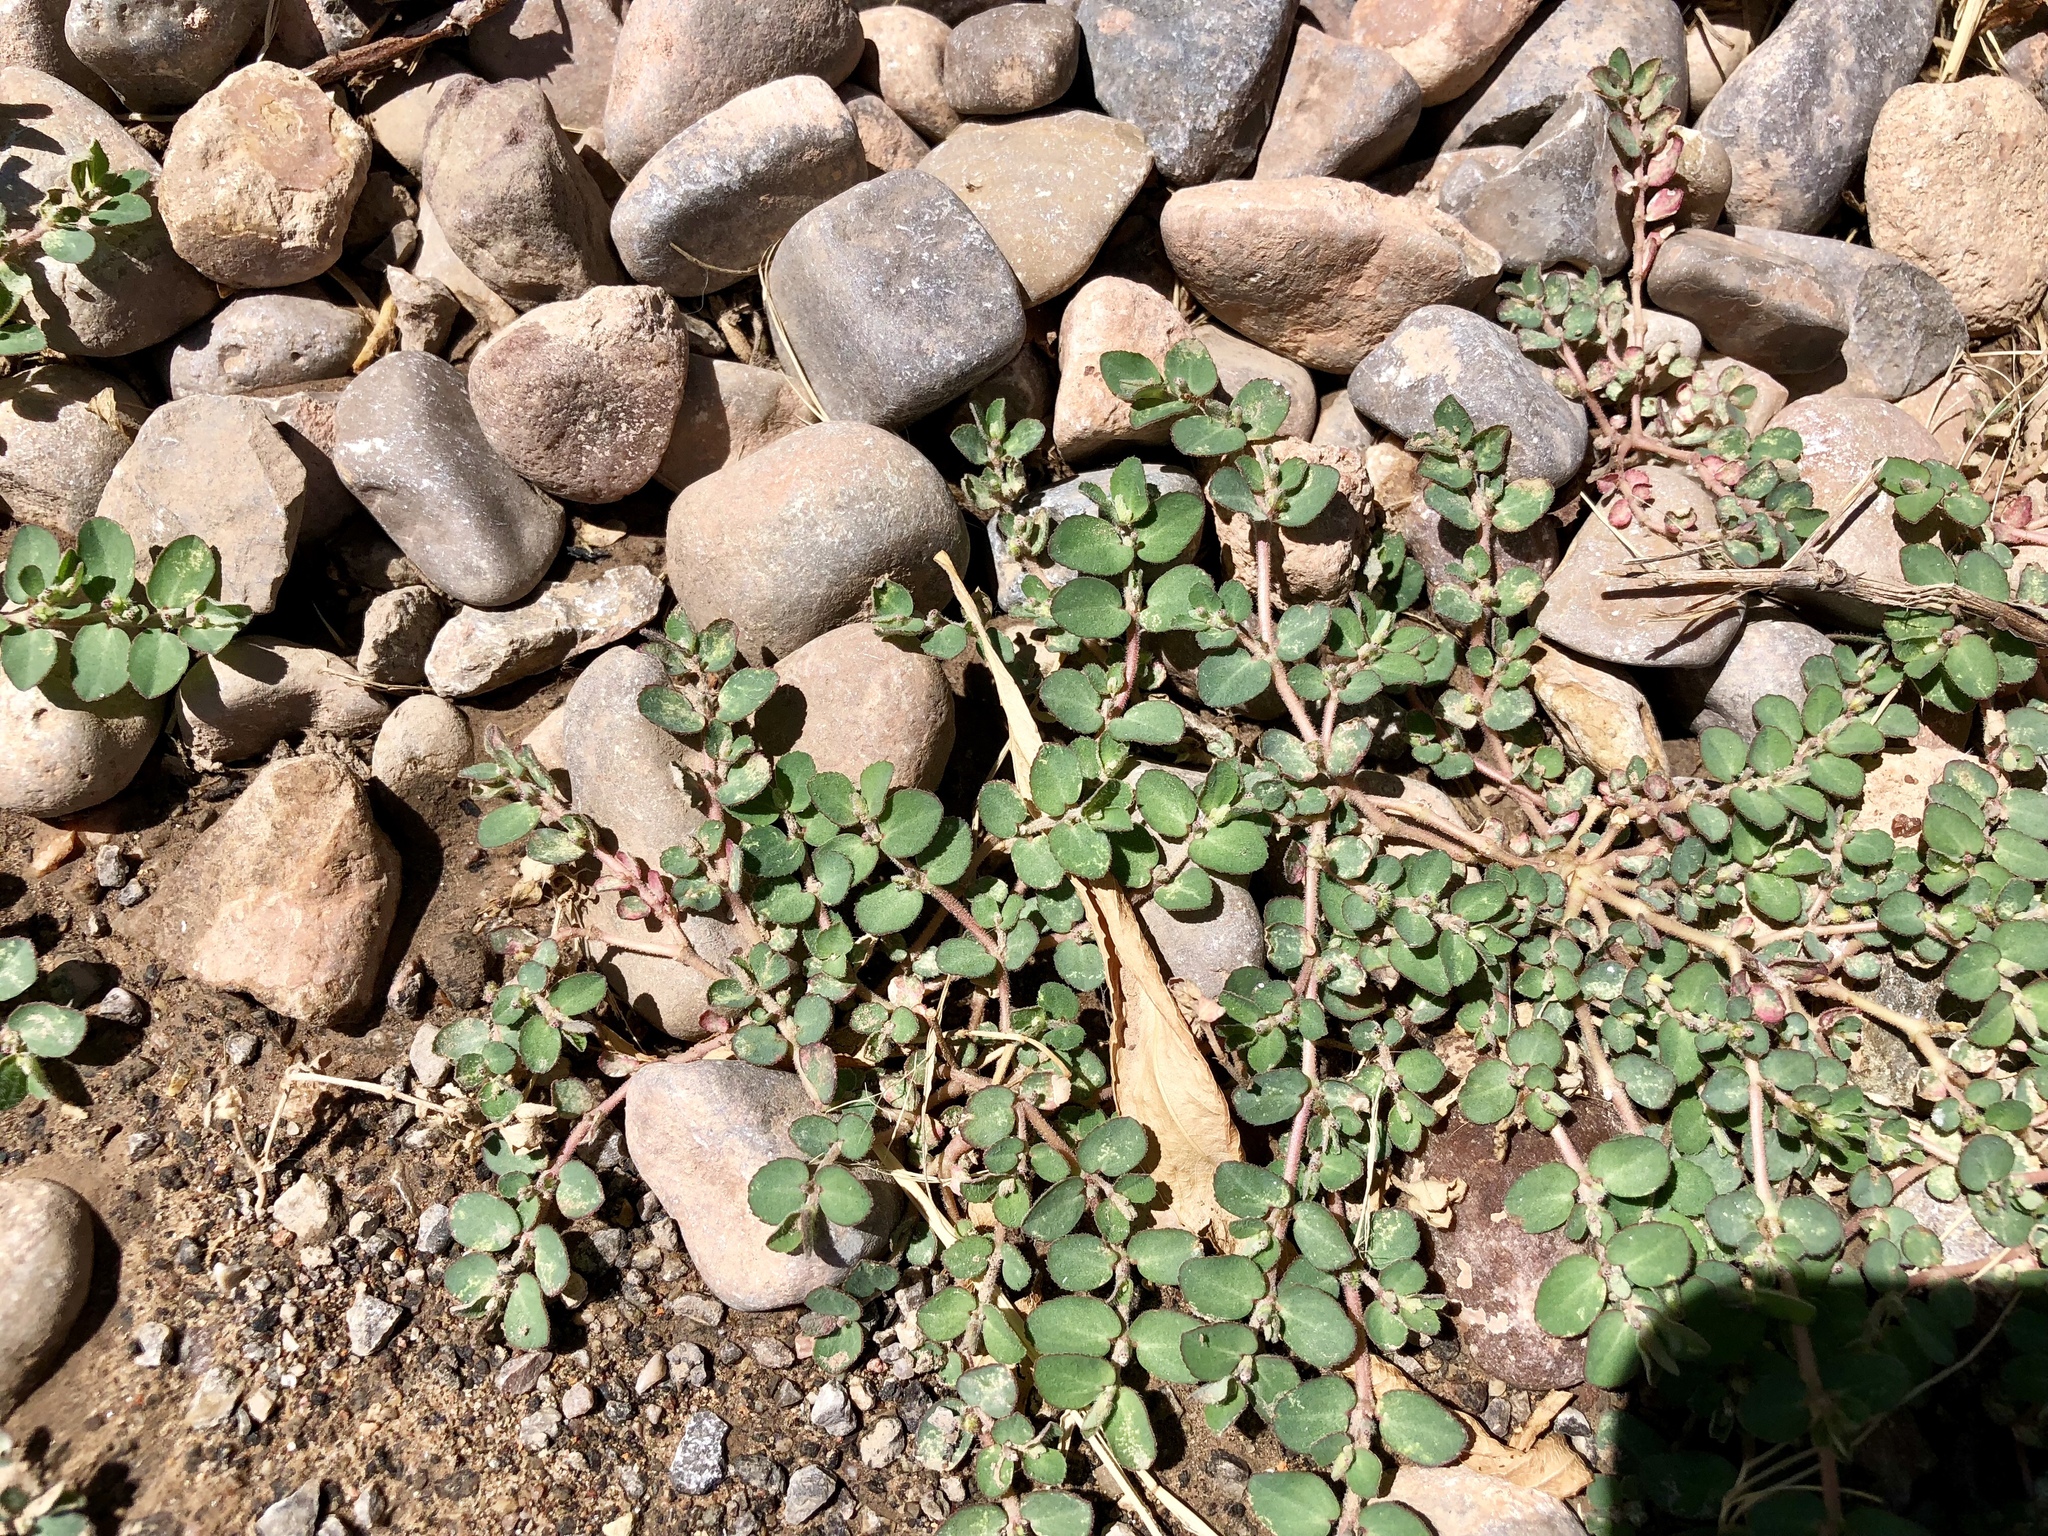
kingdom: Plantae
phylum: Tracheophyta
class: Magnoliopsida
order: Malpighiales
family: Euphorbiaceae
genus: Euphorbia
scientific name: Euphorbia prostrata
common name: Prostrate sandmat
